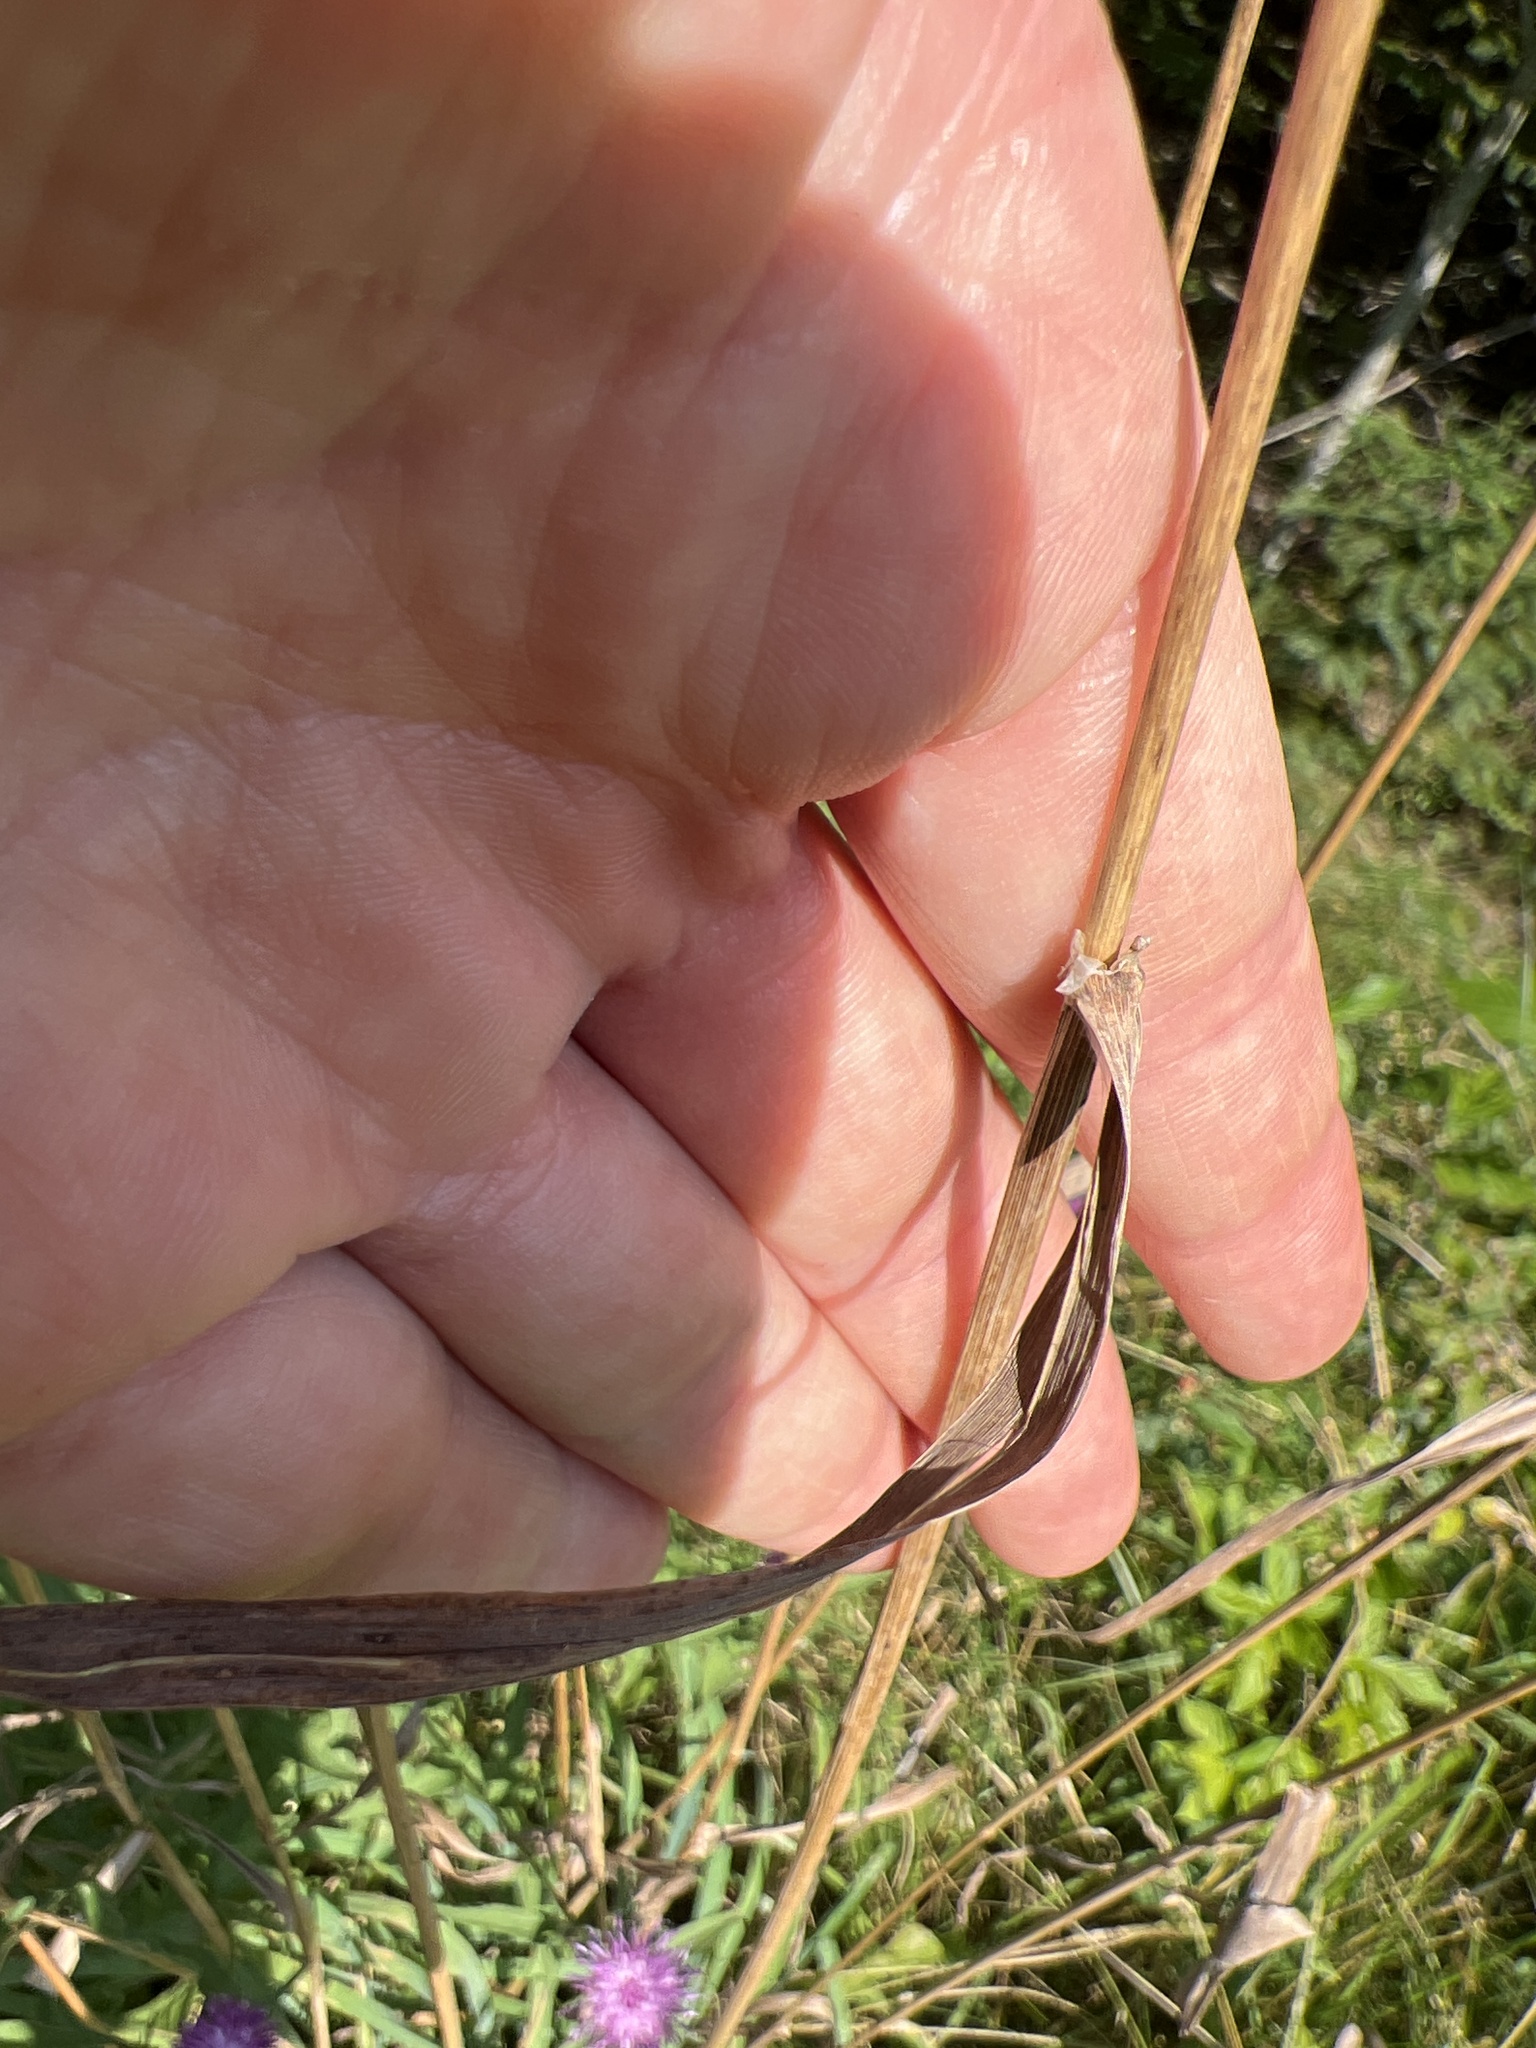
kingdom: Plantae
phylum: Tracheophyta
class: Liliopsida
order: Poales
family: Poaceae
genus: Dactylis
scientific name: Dactylis glomerata
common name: Orchardgrass
